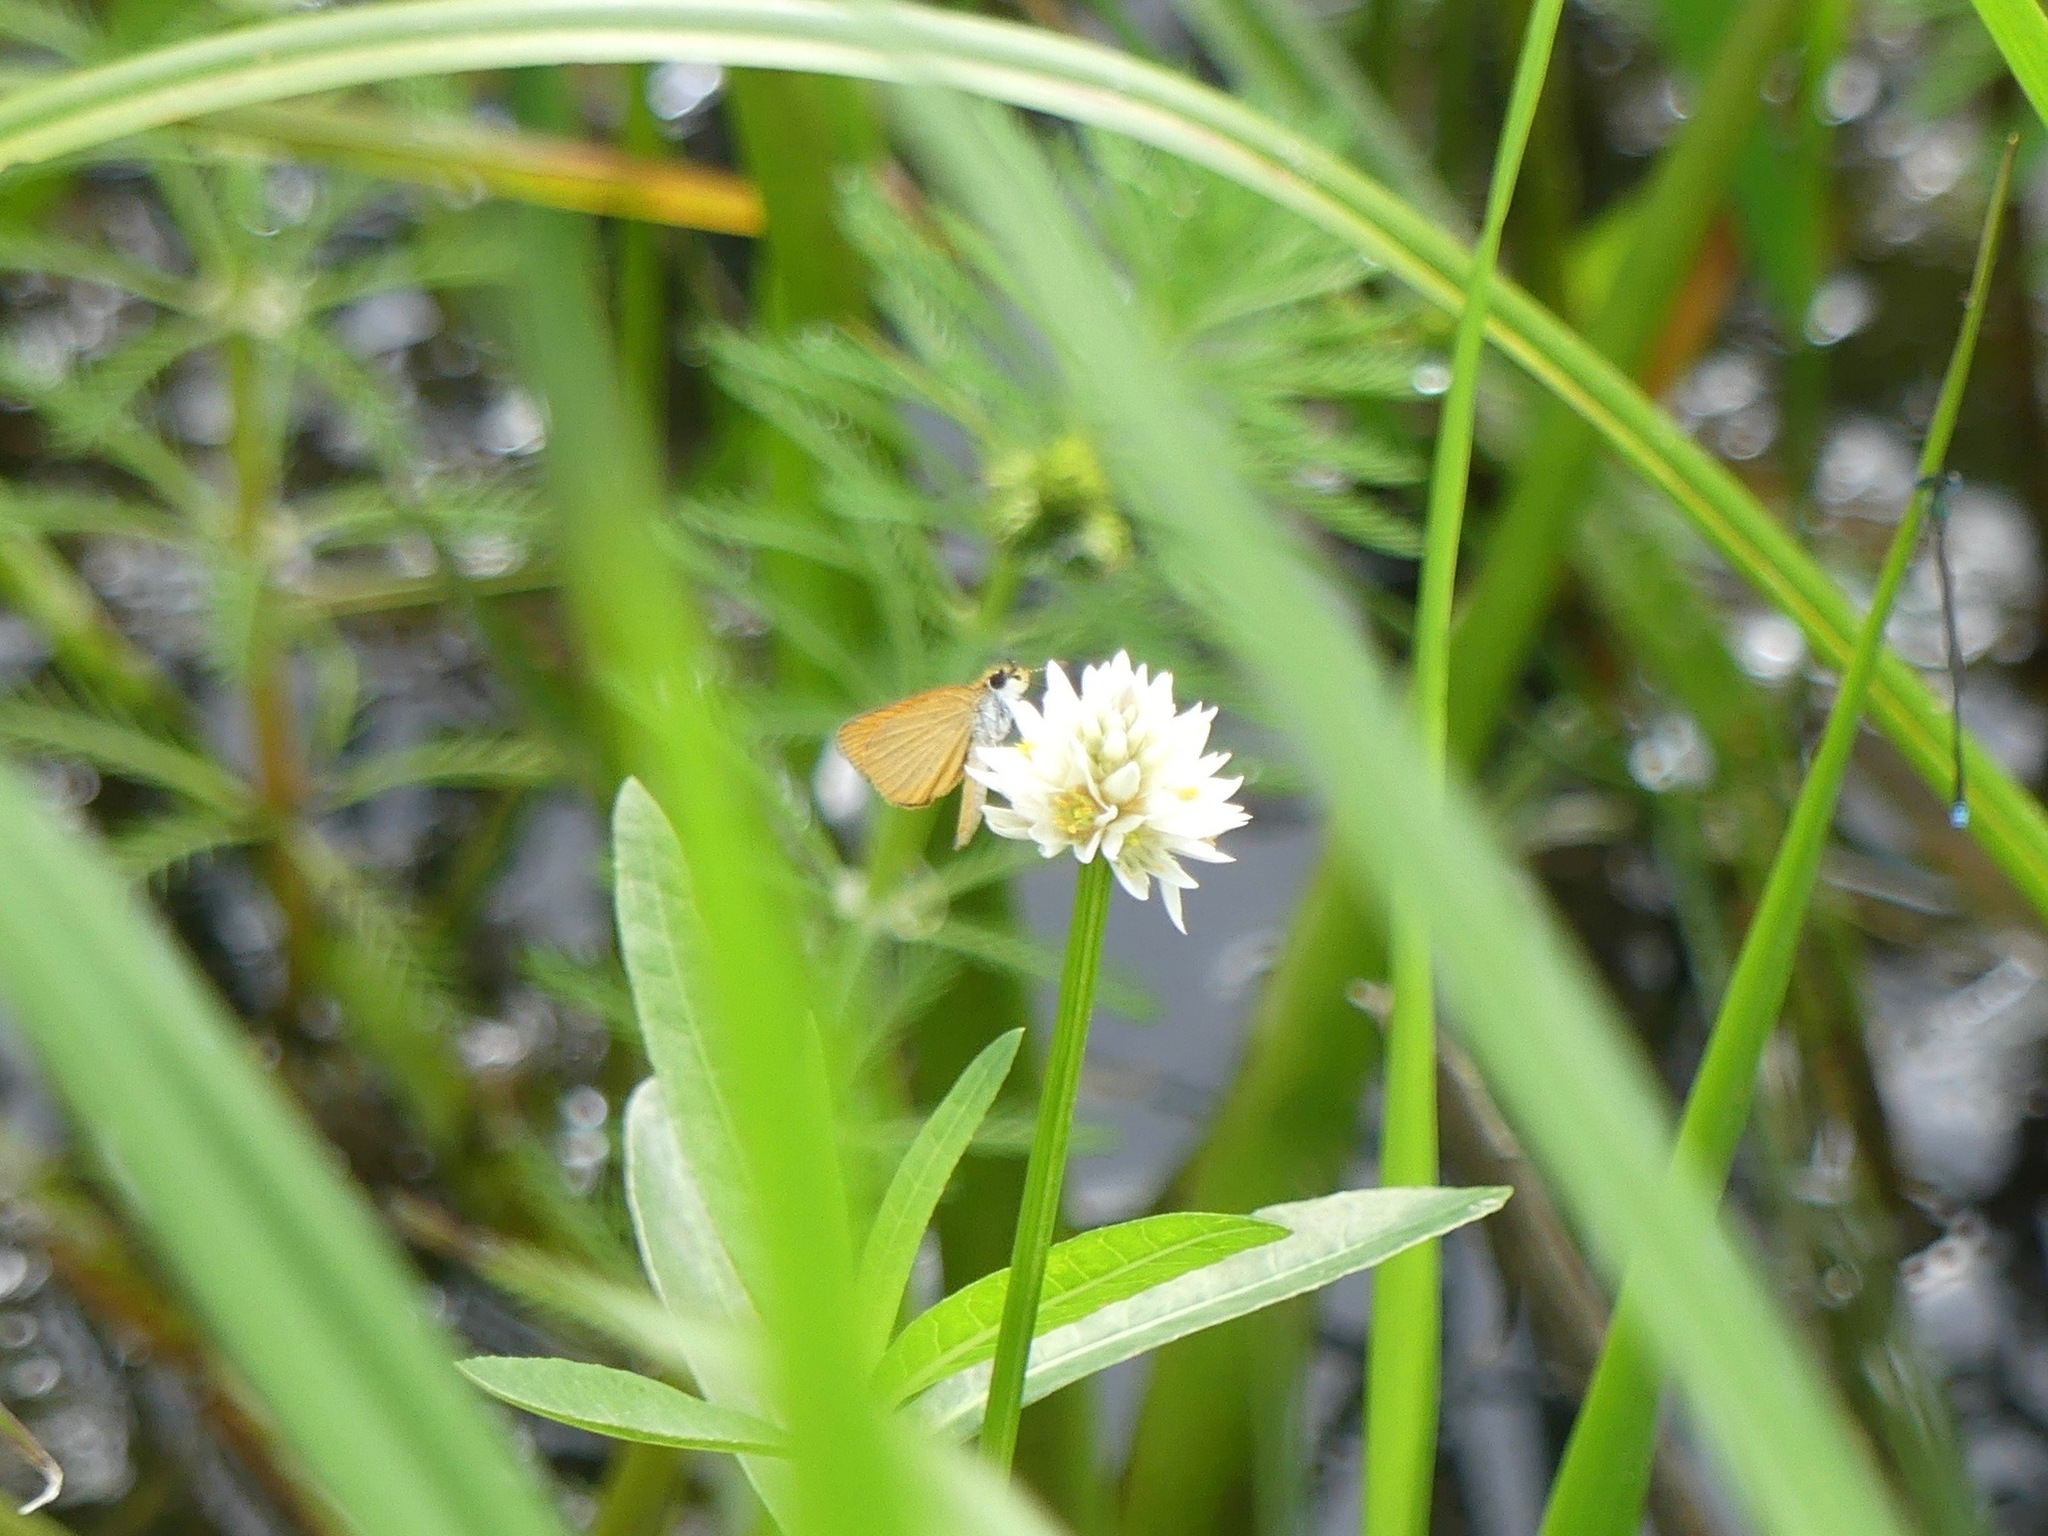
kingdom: Animalia
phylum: Arthropoda
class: Insecta
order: Lepidoptera
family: Hesperiidae
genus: Ancyloxypha
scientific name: Ancyloxypha numitor
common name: Least skipper
